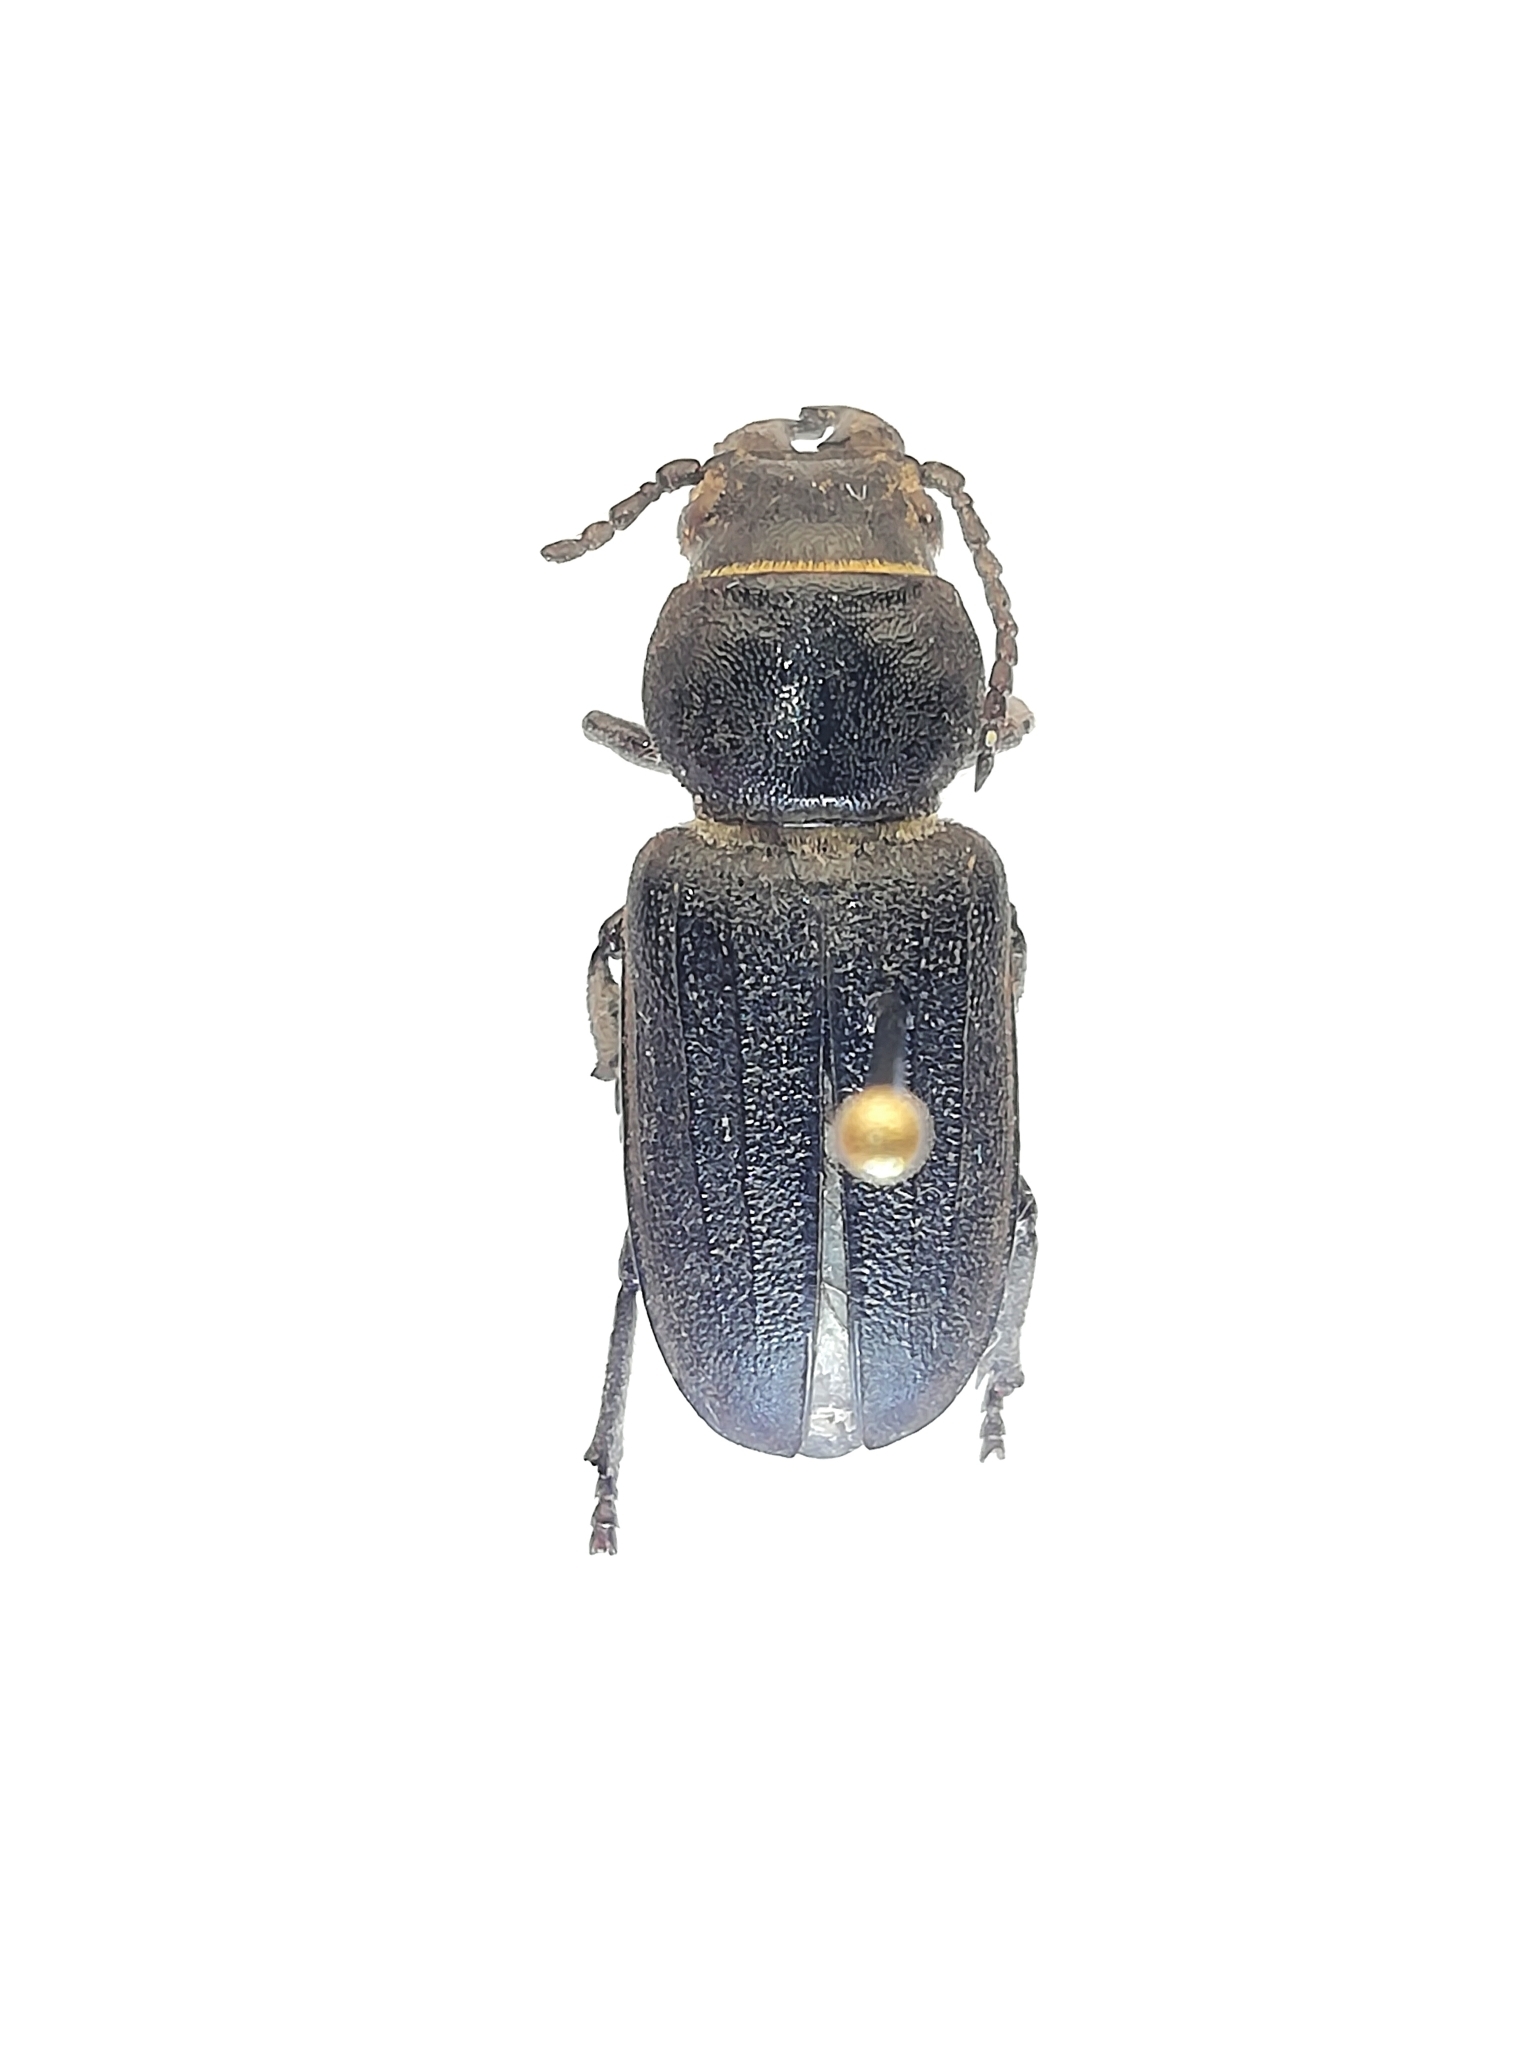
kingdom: Animalia
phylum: Arthropoda
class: Insecta
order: Coleoptera
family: Cerambycidae
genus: Spondylis
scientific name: Spondylis buprestoides
